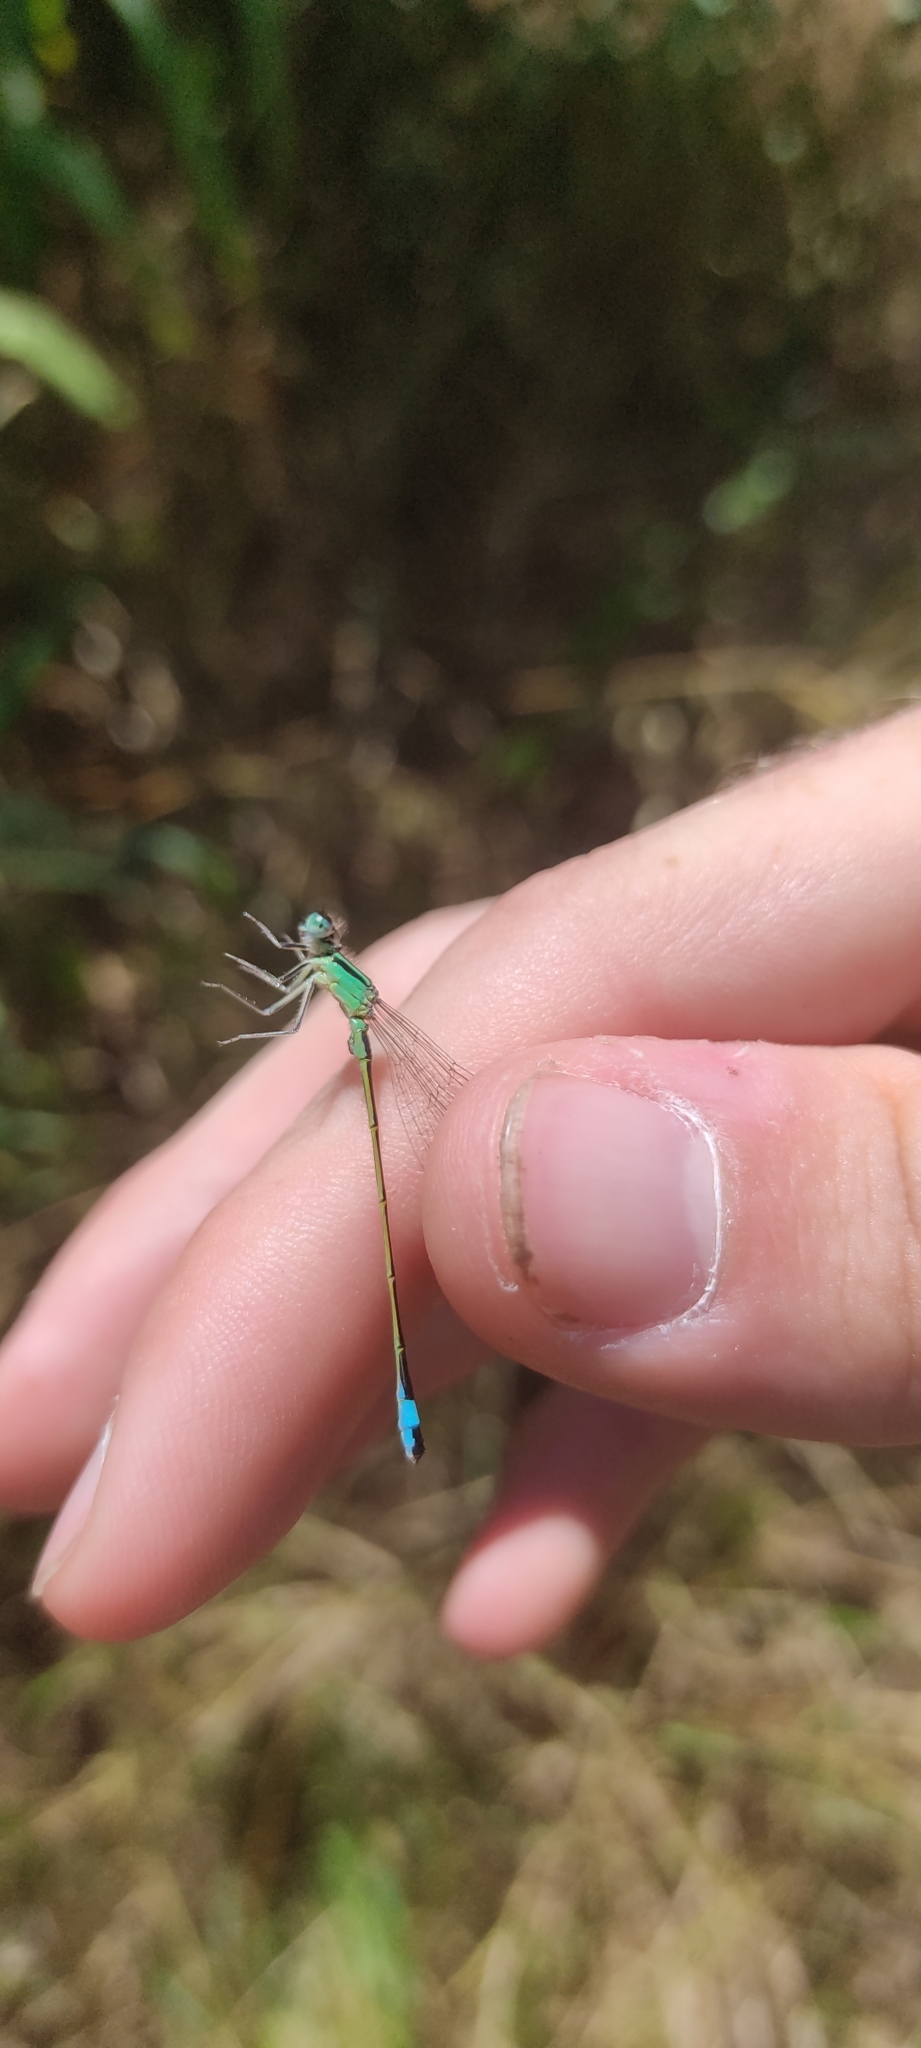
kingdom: Animalia
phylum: Arthropoda
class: Insecta
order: Odonata
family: Coenagrionidae
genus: Ischnura
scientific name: Ischnura elegans
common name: Blue-tailed damselfly
